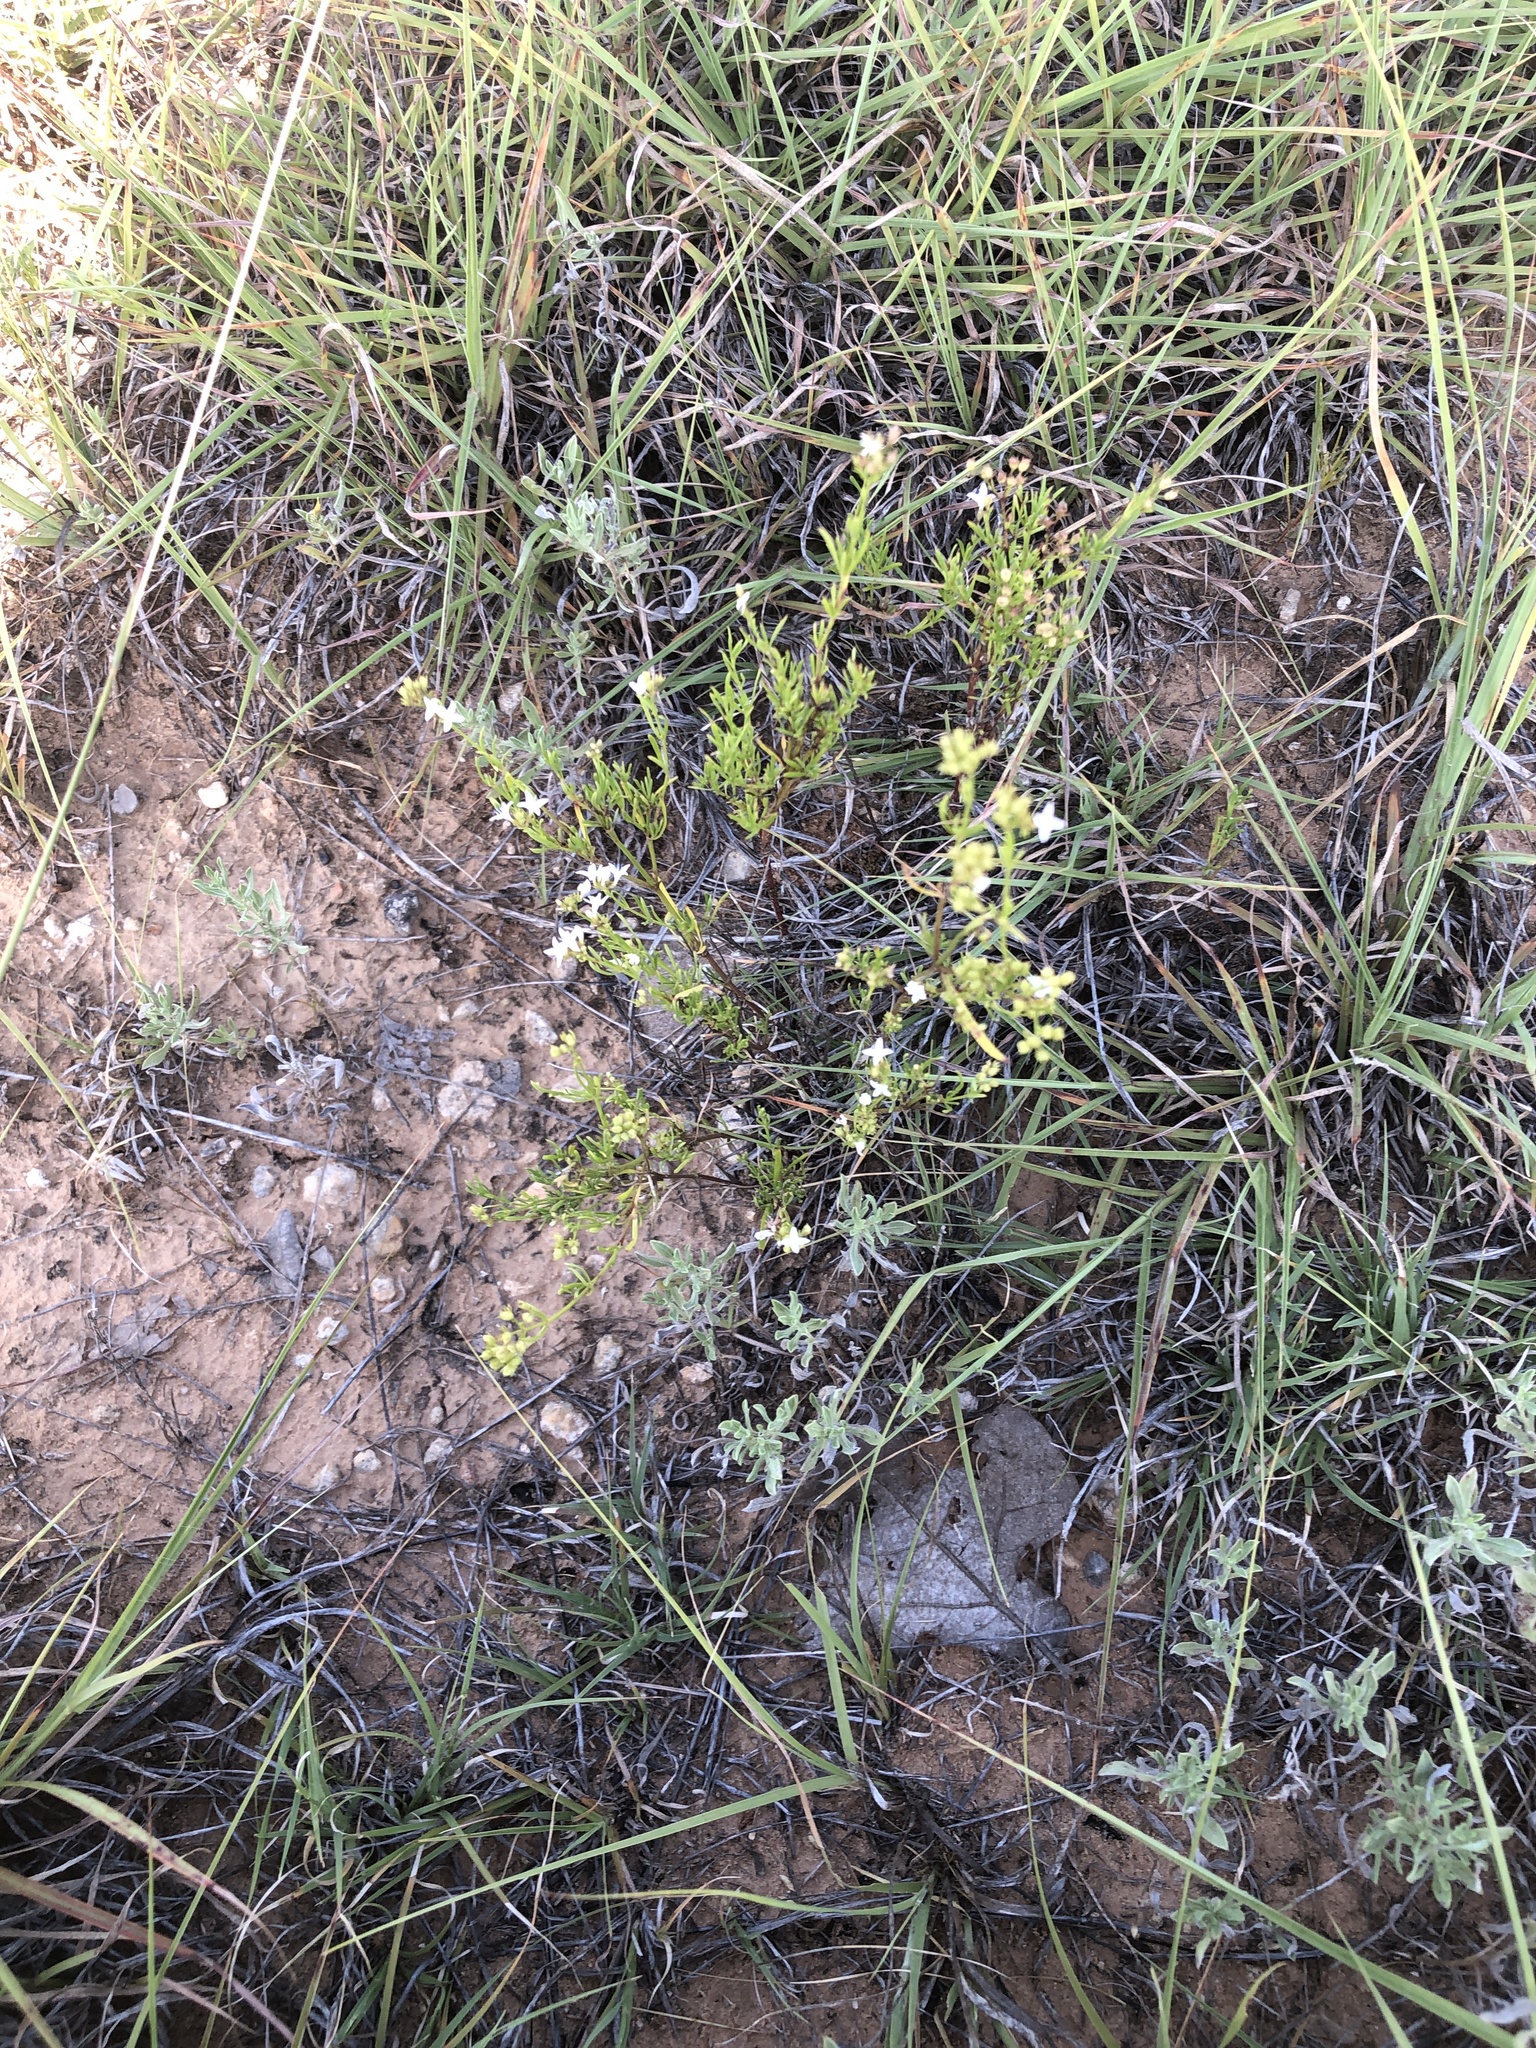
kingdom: Plantae
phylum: Tracheophyta
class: Magnoliopsida
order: Gentianales
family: Rubiaceae
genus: Stenaria
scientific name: Stenaria nigricans
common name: Diamondflowers
